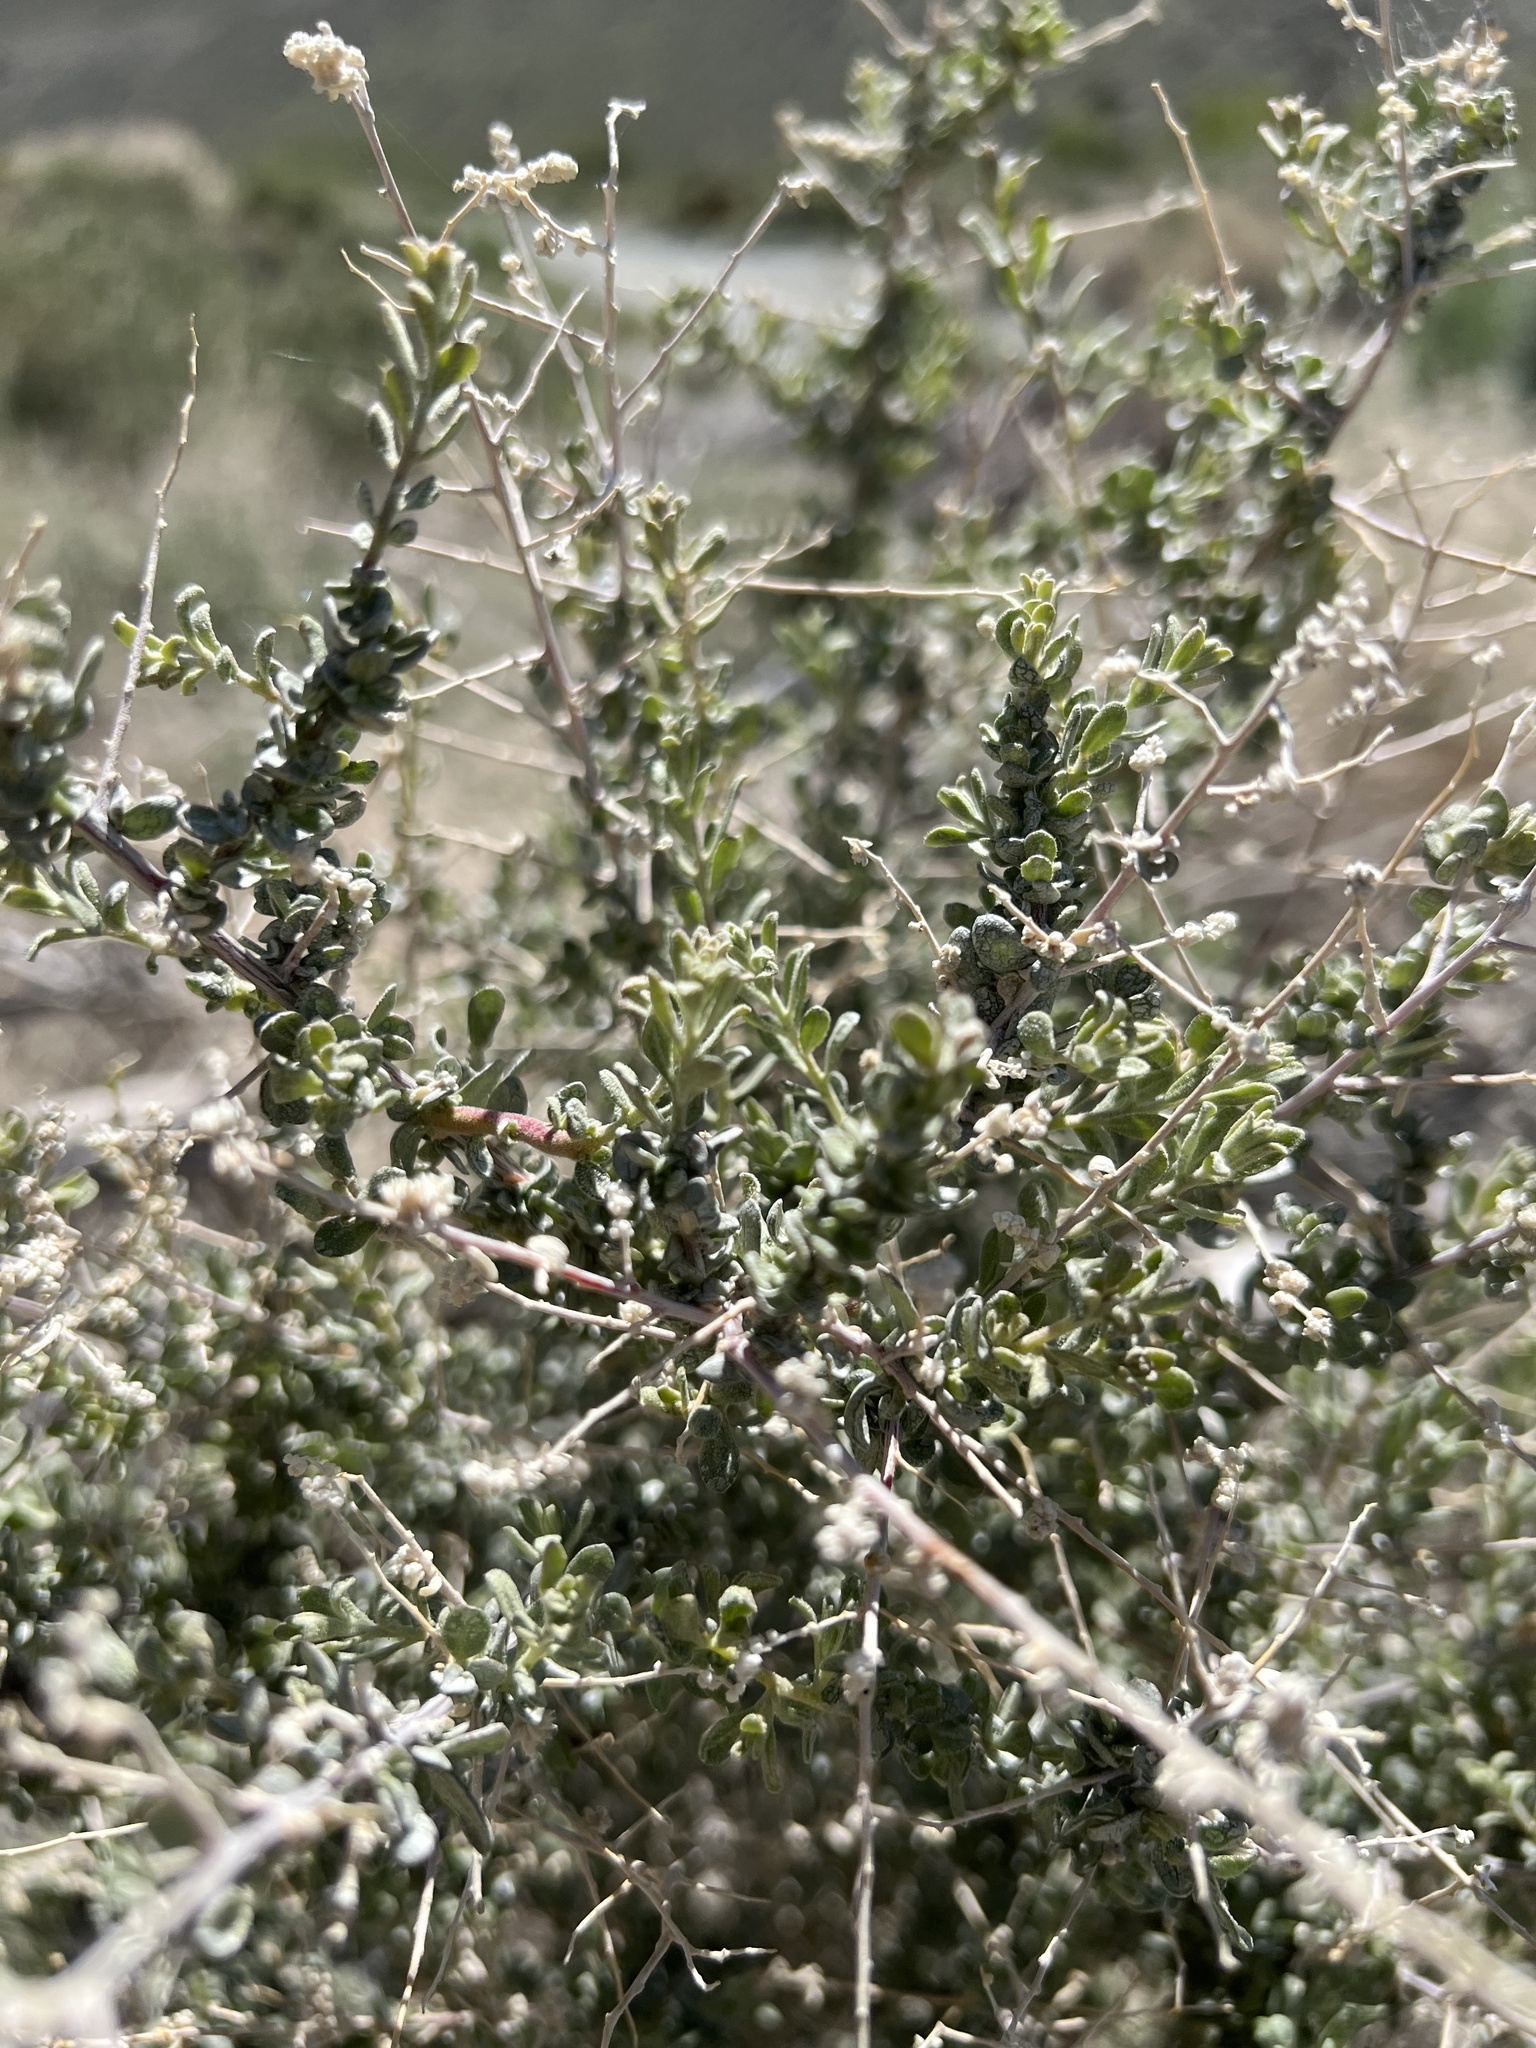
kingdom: Plantae
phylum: Tracheophyta
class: Magnoliopsida
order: Caryophyllales
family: Amaranthaceae
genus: Atriplex
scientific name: Atriplex polycarpa
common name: Desert saltbush
